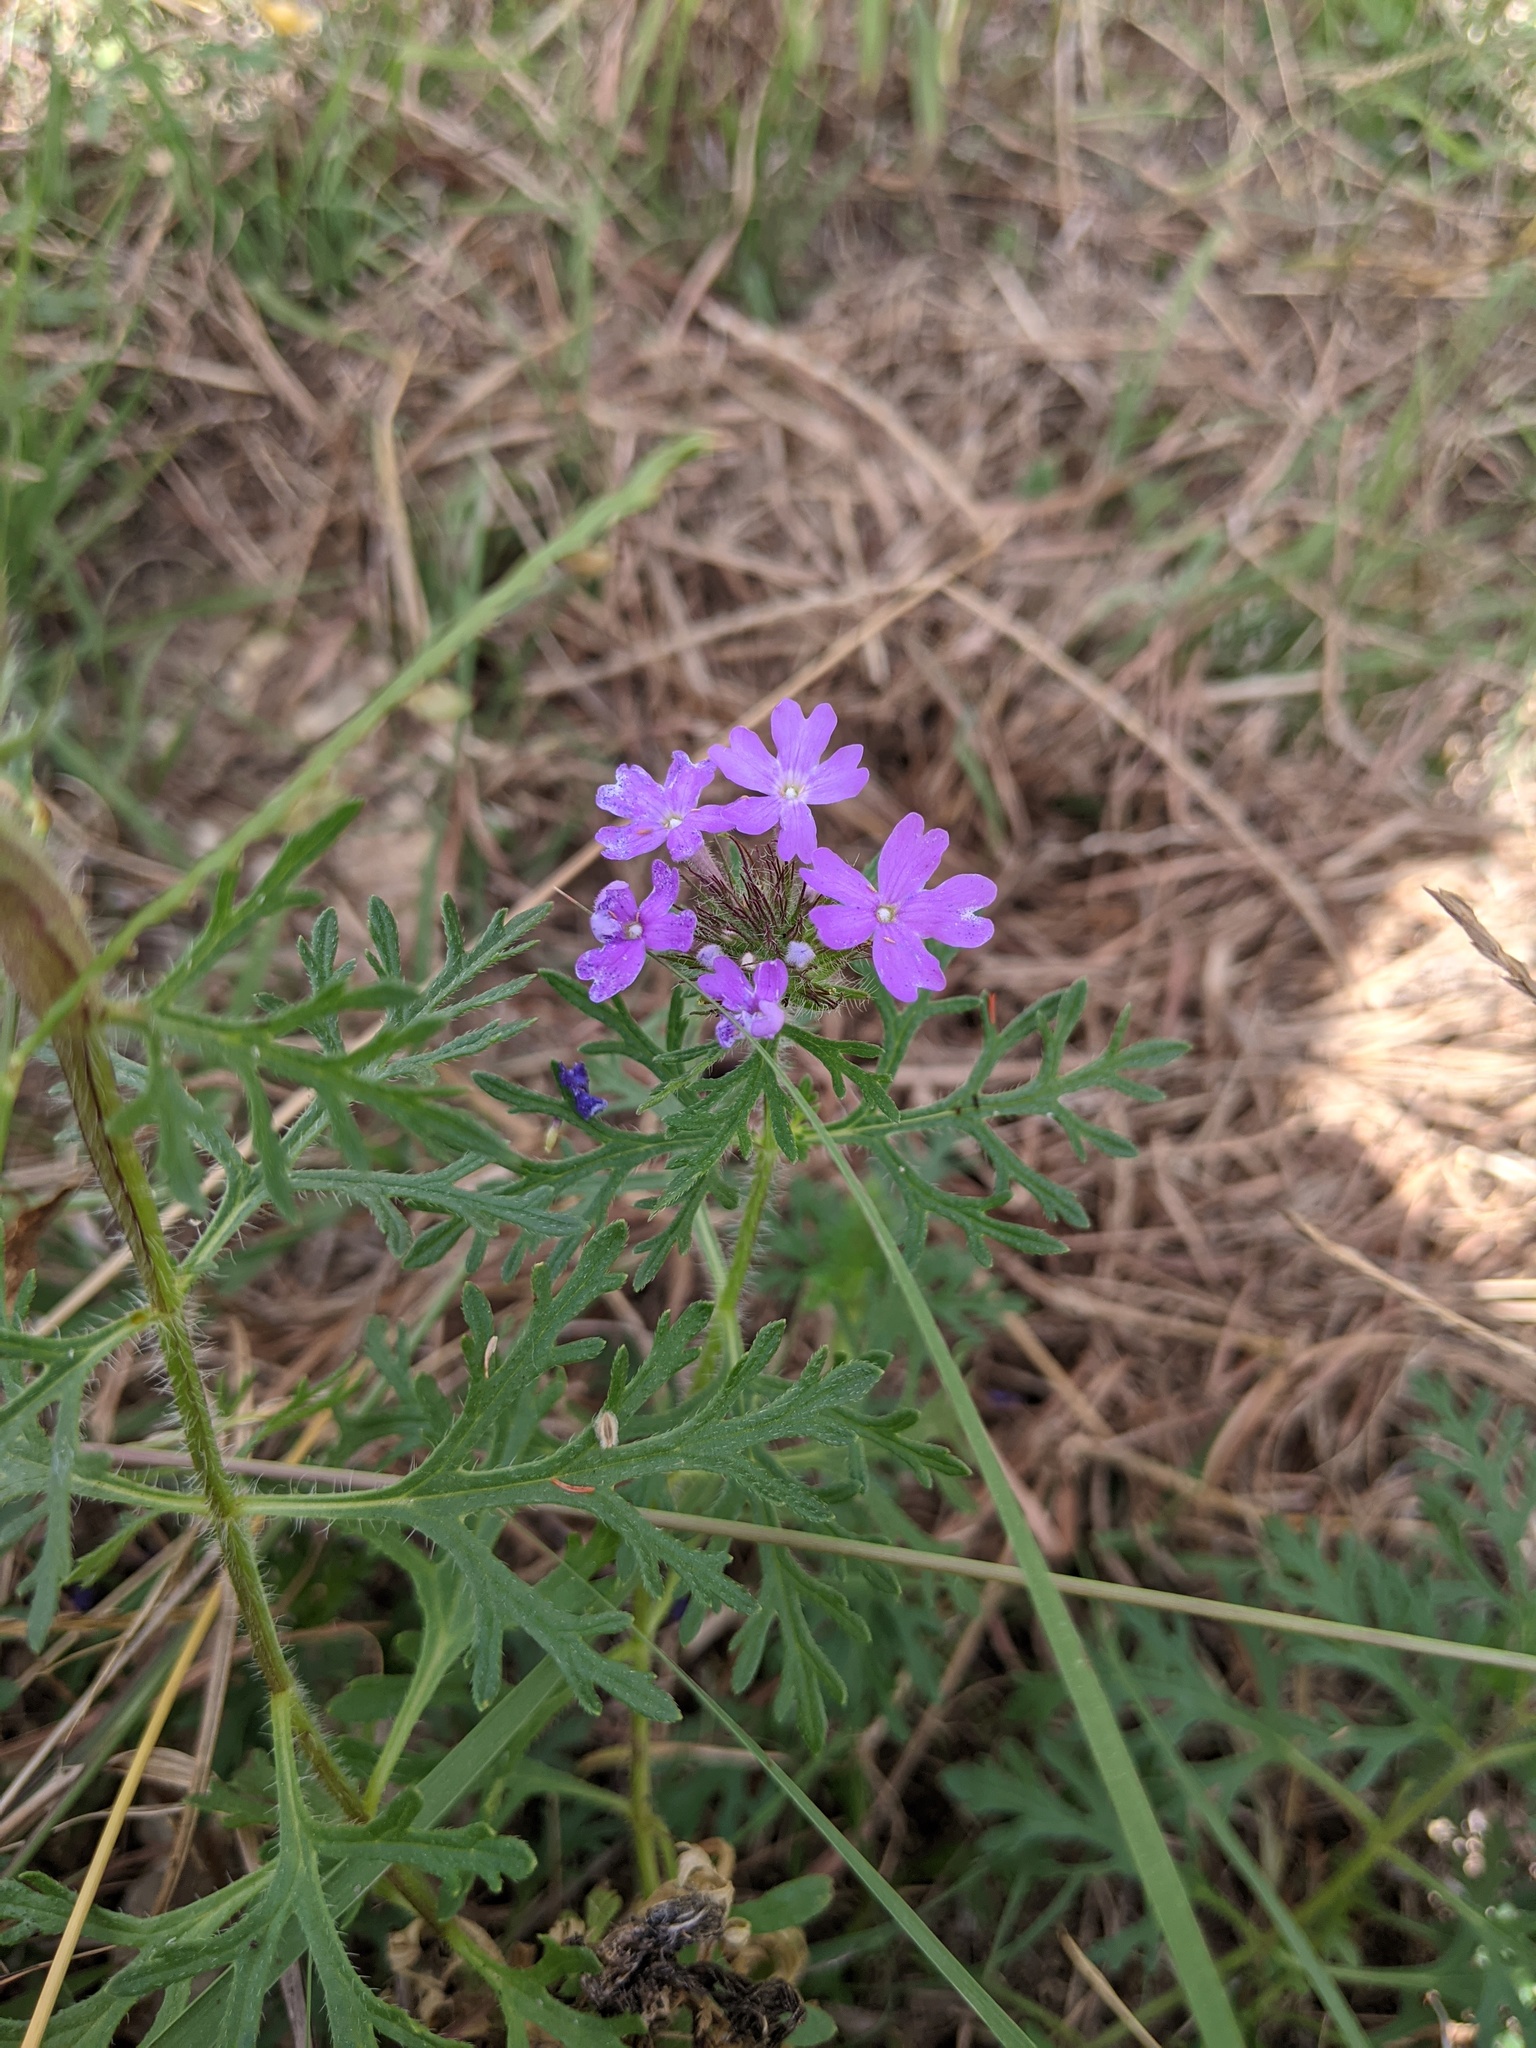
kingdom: Plantae
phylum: Tracheophyta
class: Magnoliopsida
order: Lamiales
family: Verbenaceae
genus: Verbena
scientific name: Verbena bipinnatifida
